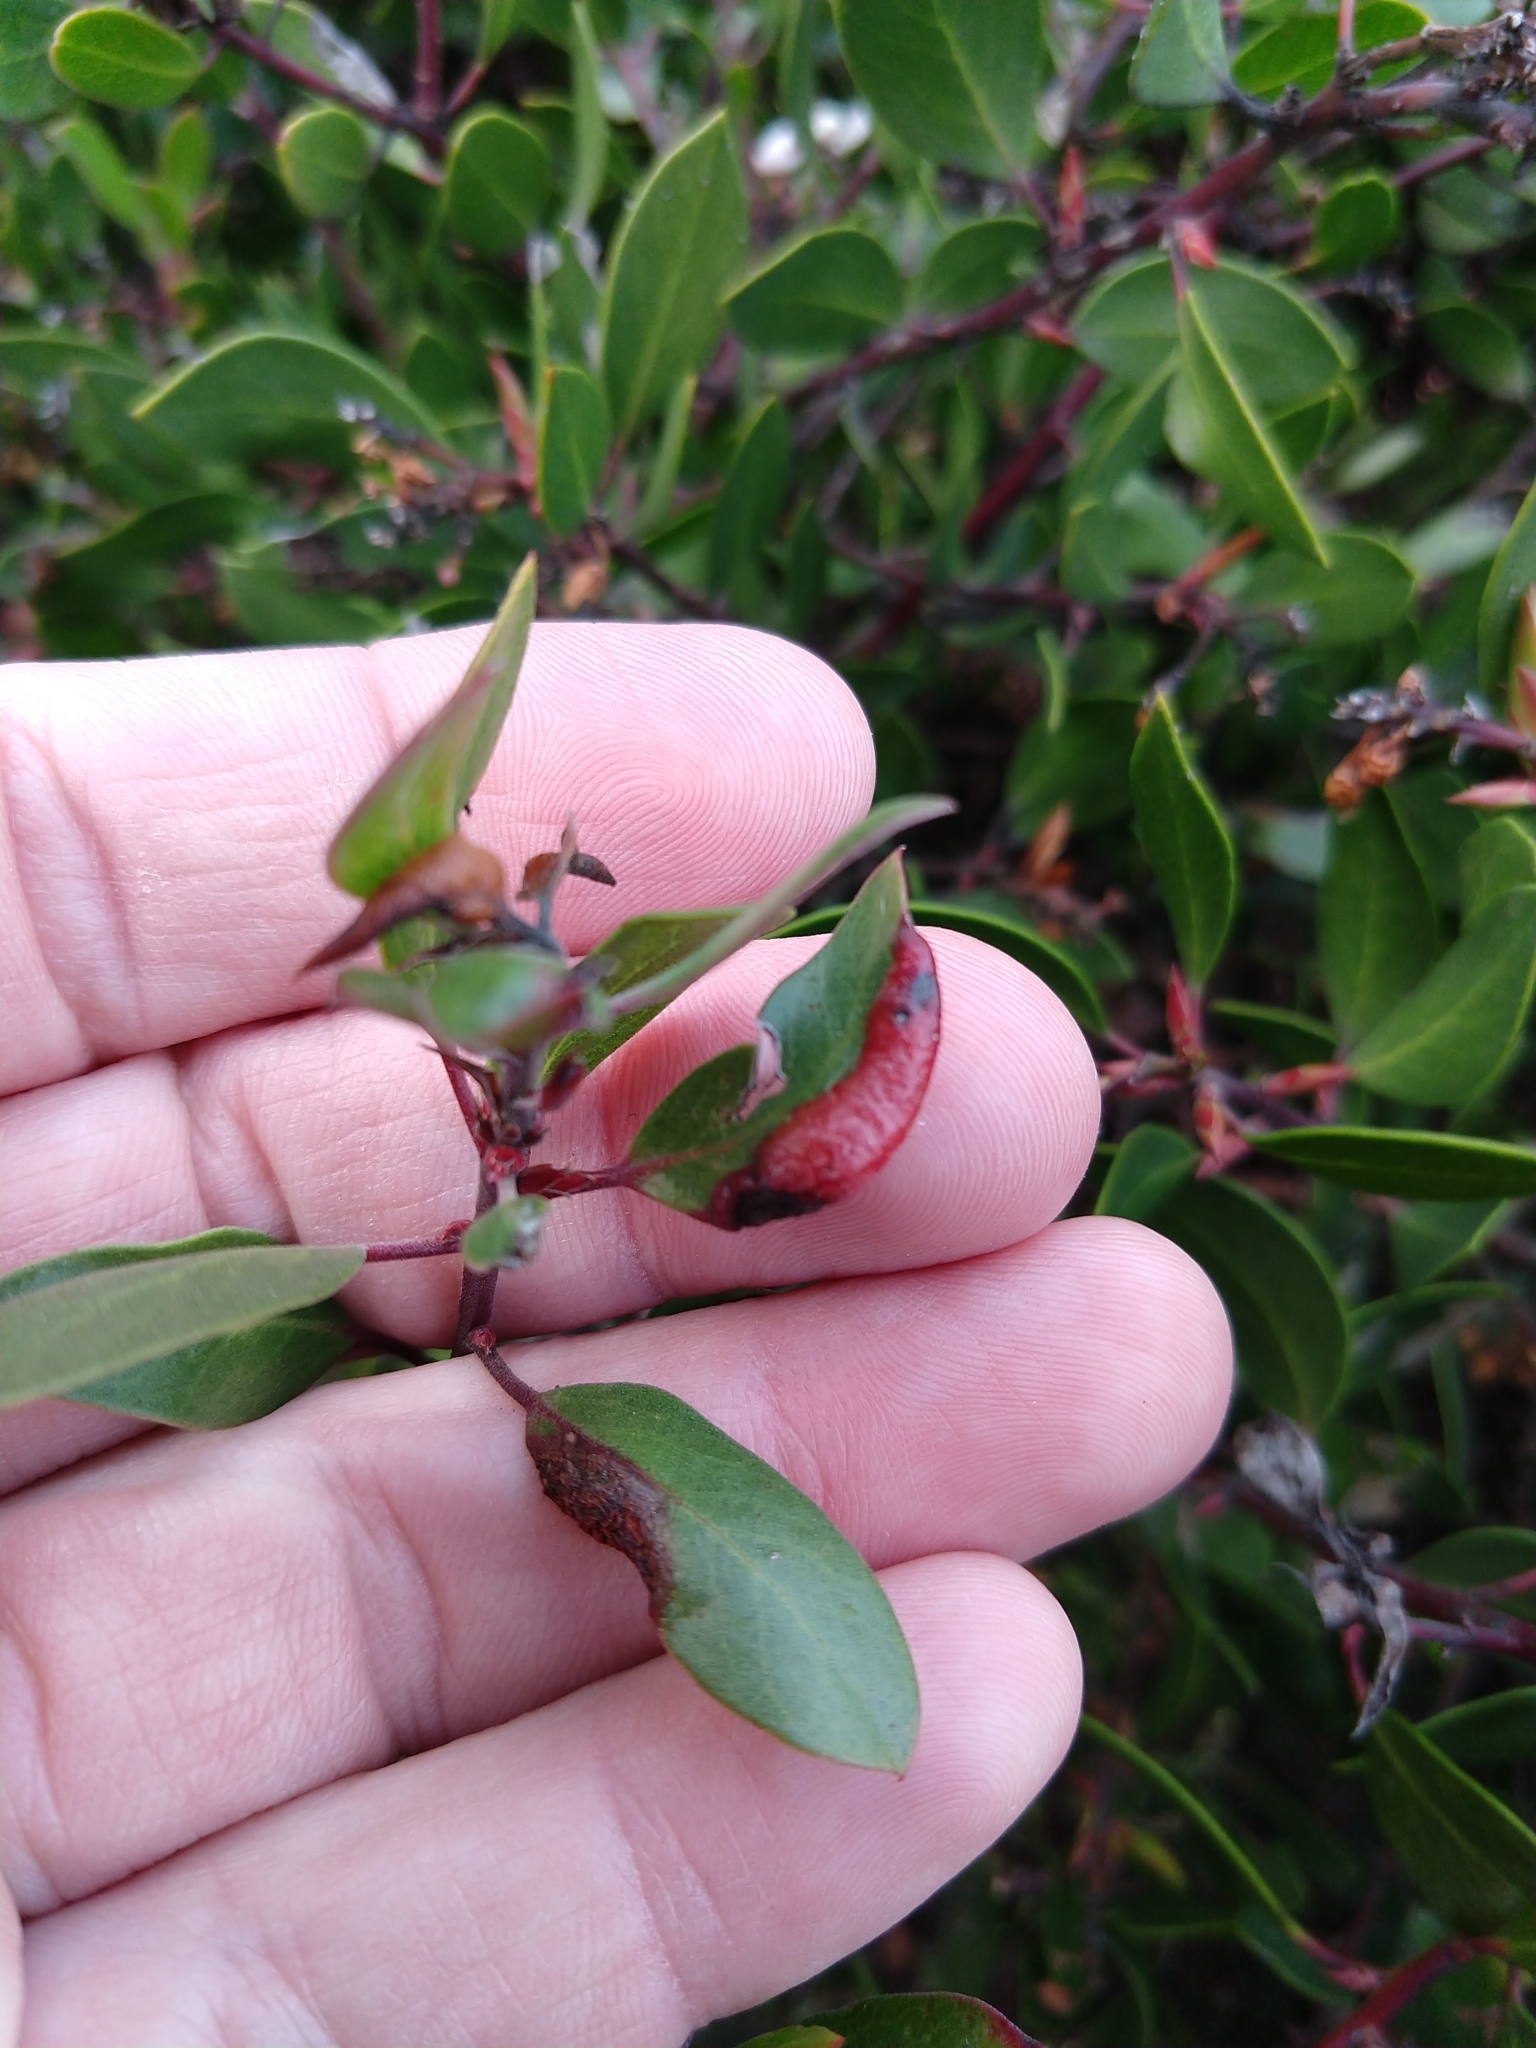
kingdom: Animalia
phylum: Arthropoda
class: Insecta
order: Hemiptera
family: Aphididae
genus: Tamalia
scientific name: Tamalia coweni
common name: Manzanita leafgall aphid
